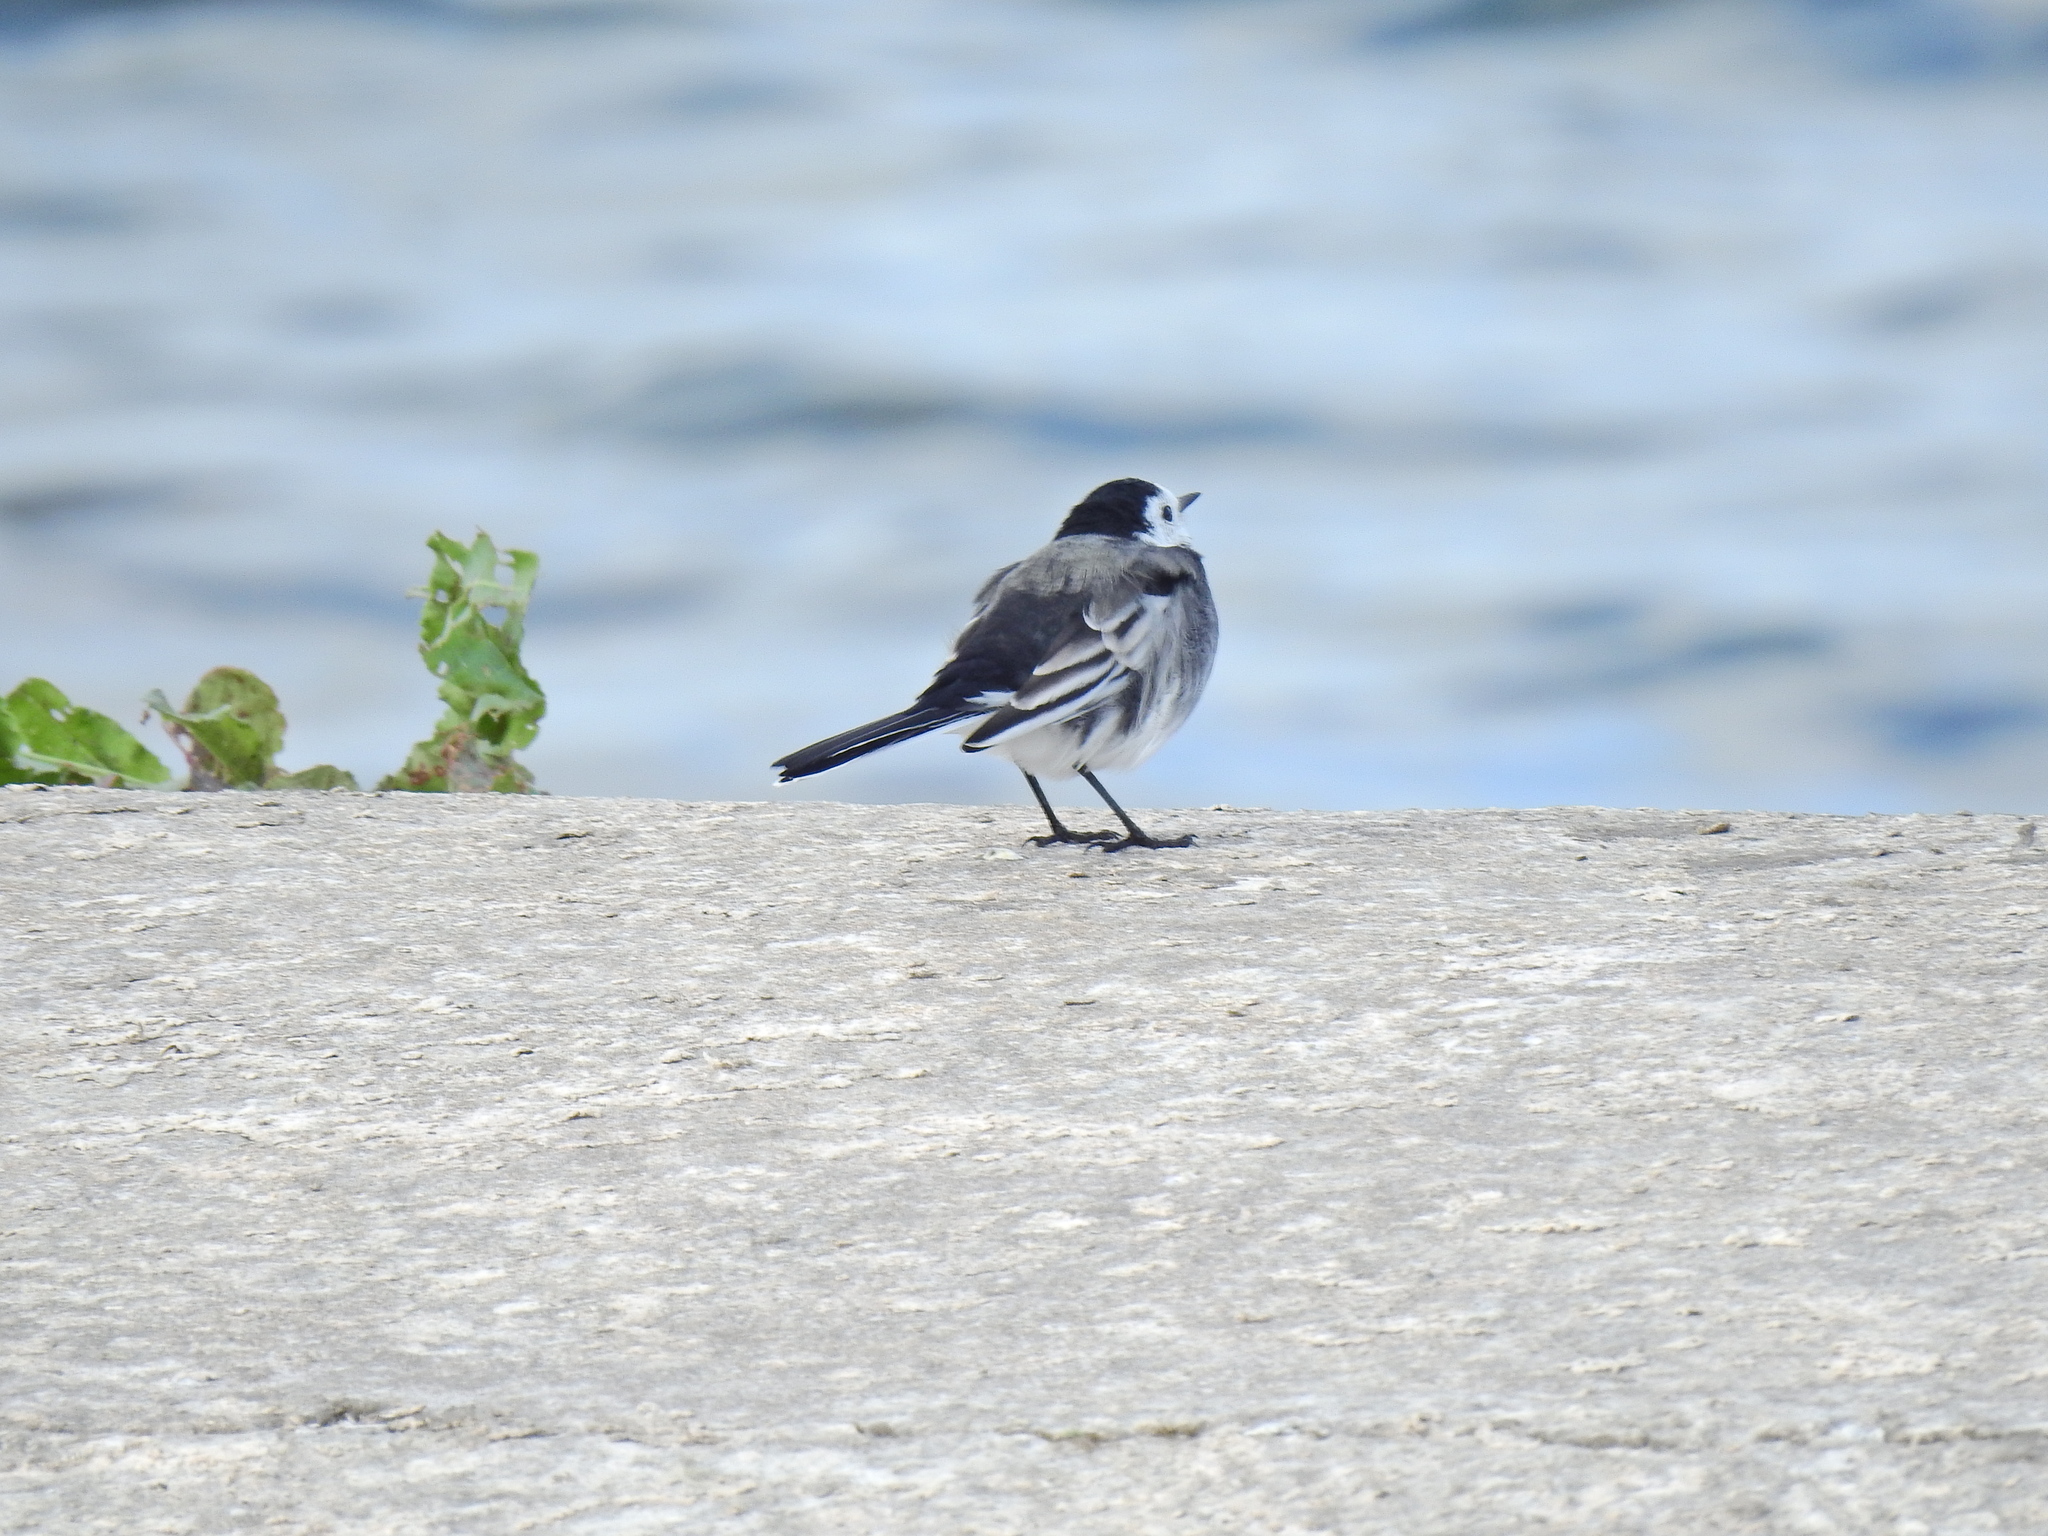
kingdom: Animalia
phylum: Chordata
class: Aves
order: Passeriformes
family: Motacillidae
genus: Motacilla
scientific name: Motacilla alba
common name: White wagtail
